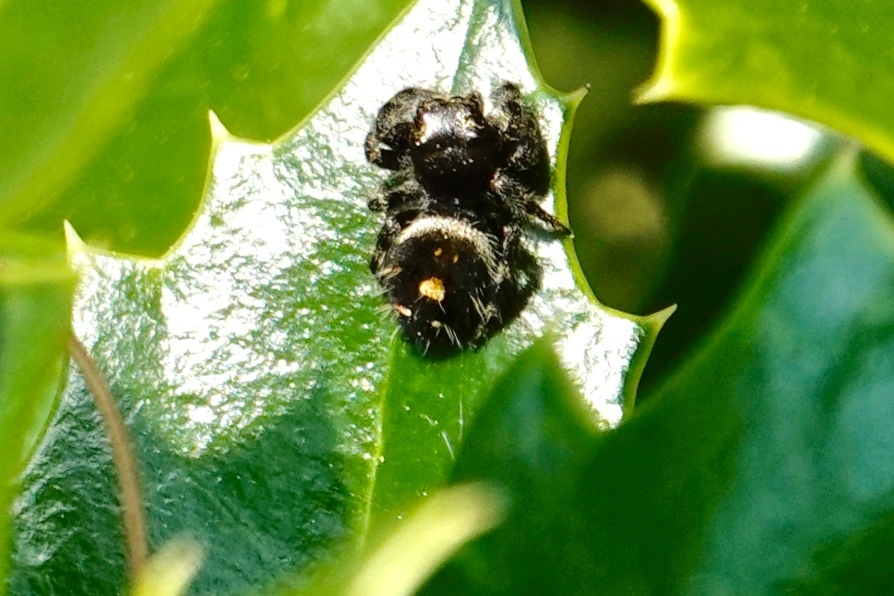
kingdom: Animalia
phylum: Arthropoda
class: Arachnida
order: Araneae
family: Salticidae
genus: Phidippus
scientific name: Phidippus audax
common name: Bold jumper
